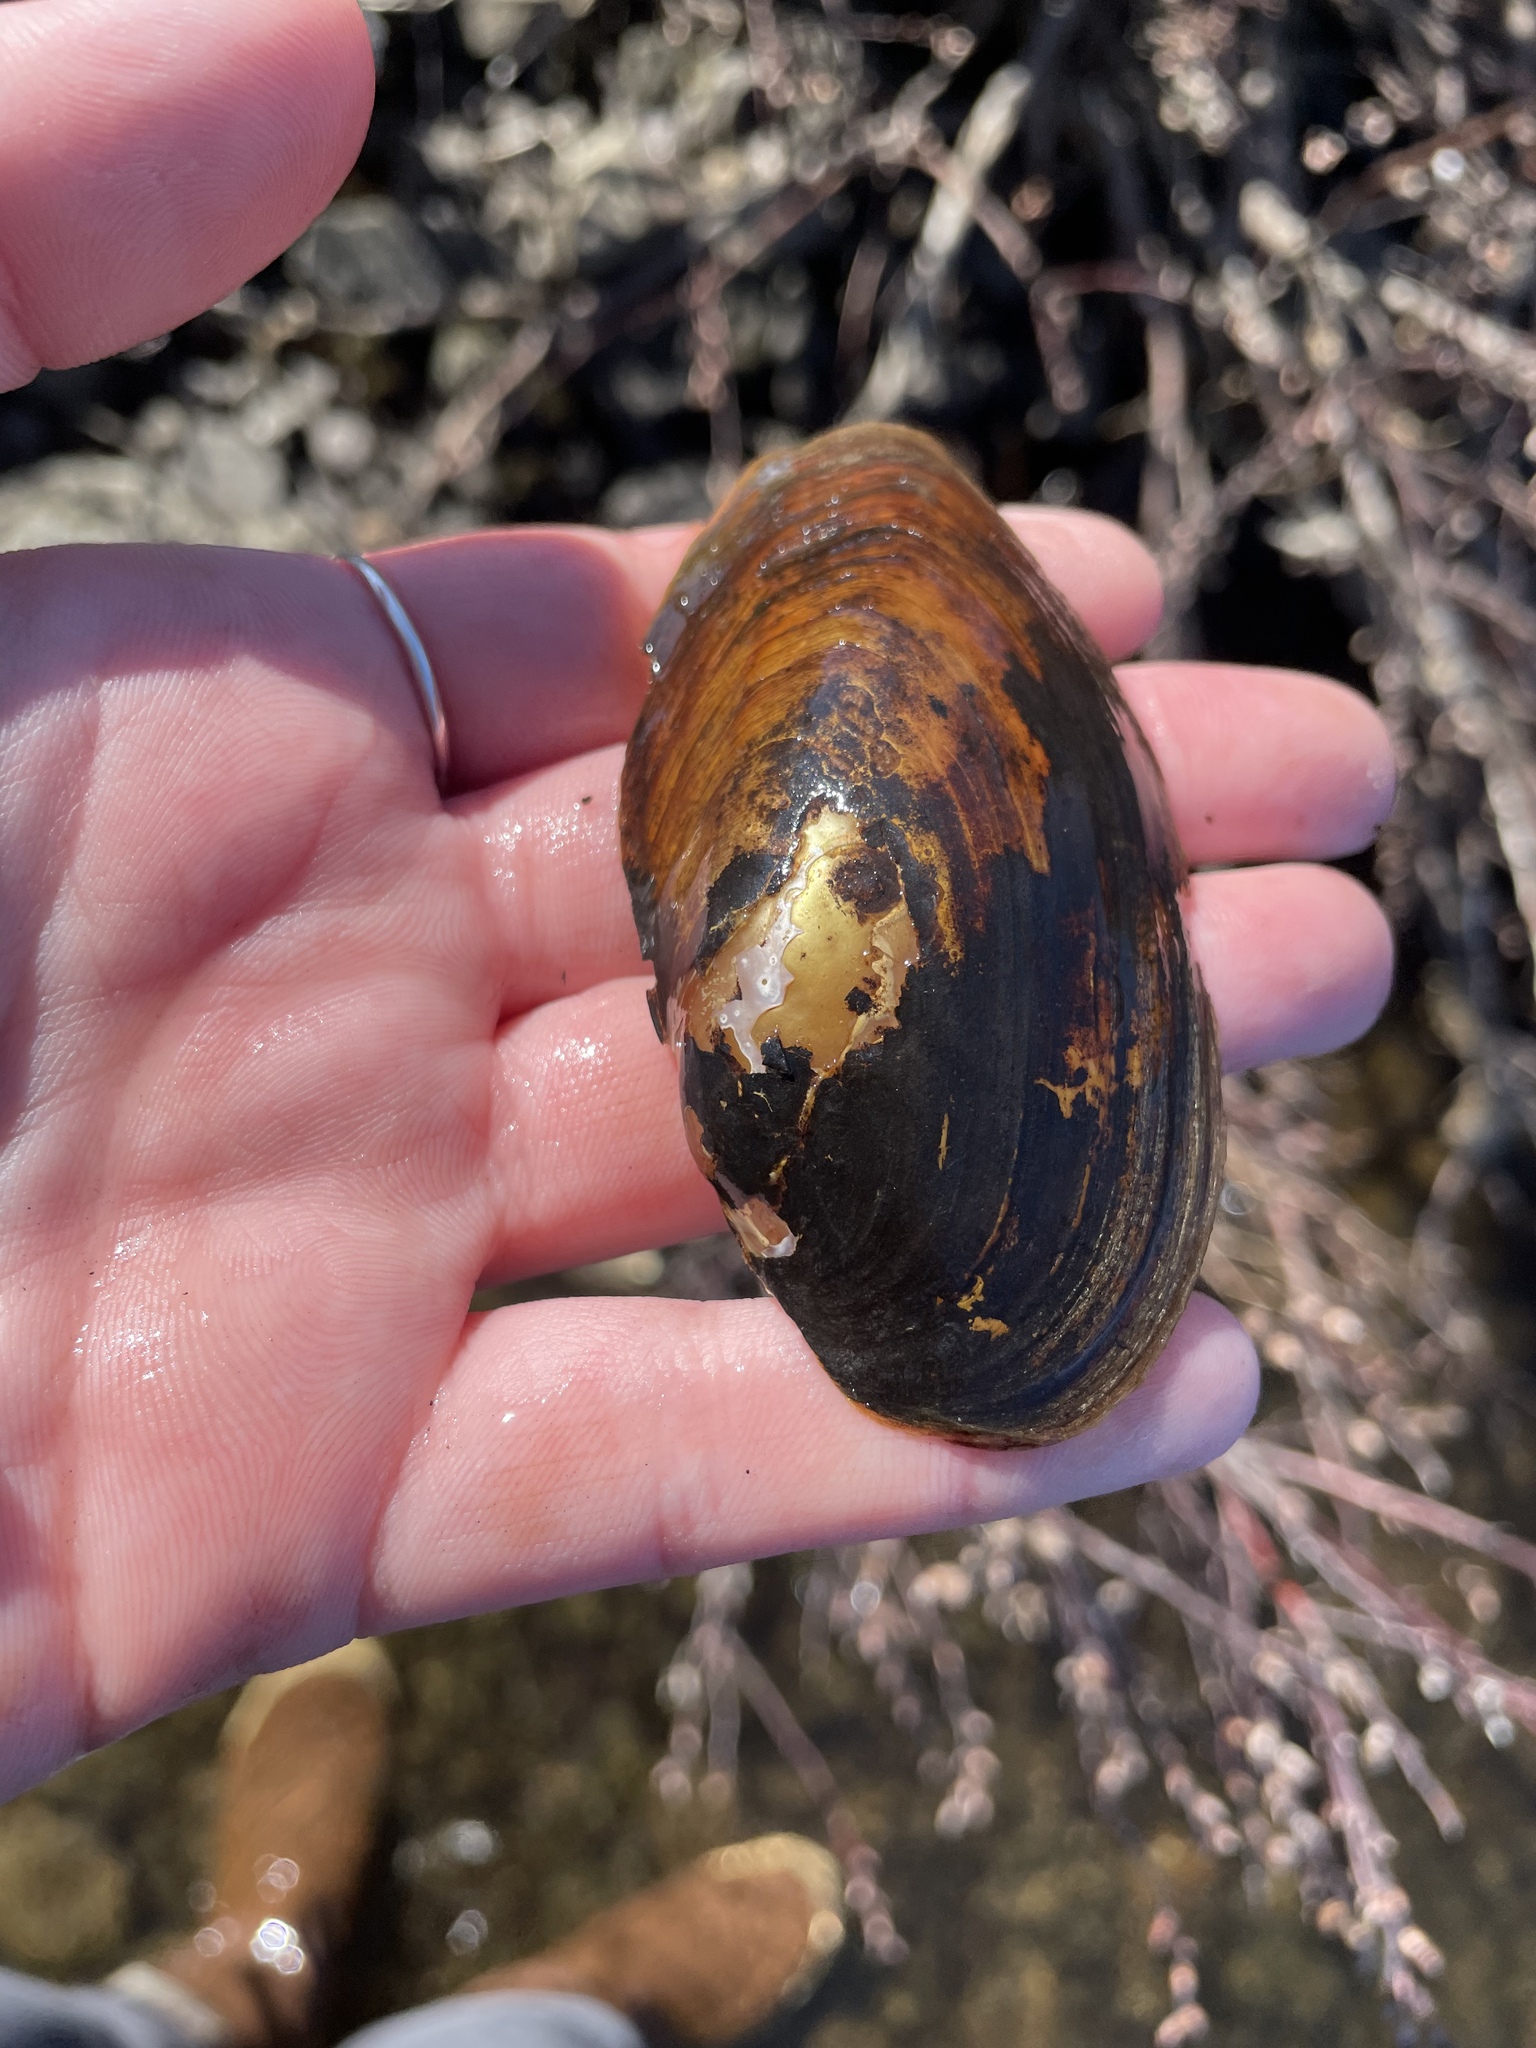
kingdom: Animalia
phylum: Mollusca
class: Bivalvia
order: Unionida
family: Unionidae
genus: Utterbackiana
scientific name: Utterbackiana implicata
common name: Alewife floater
